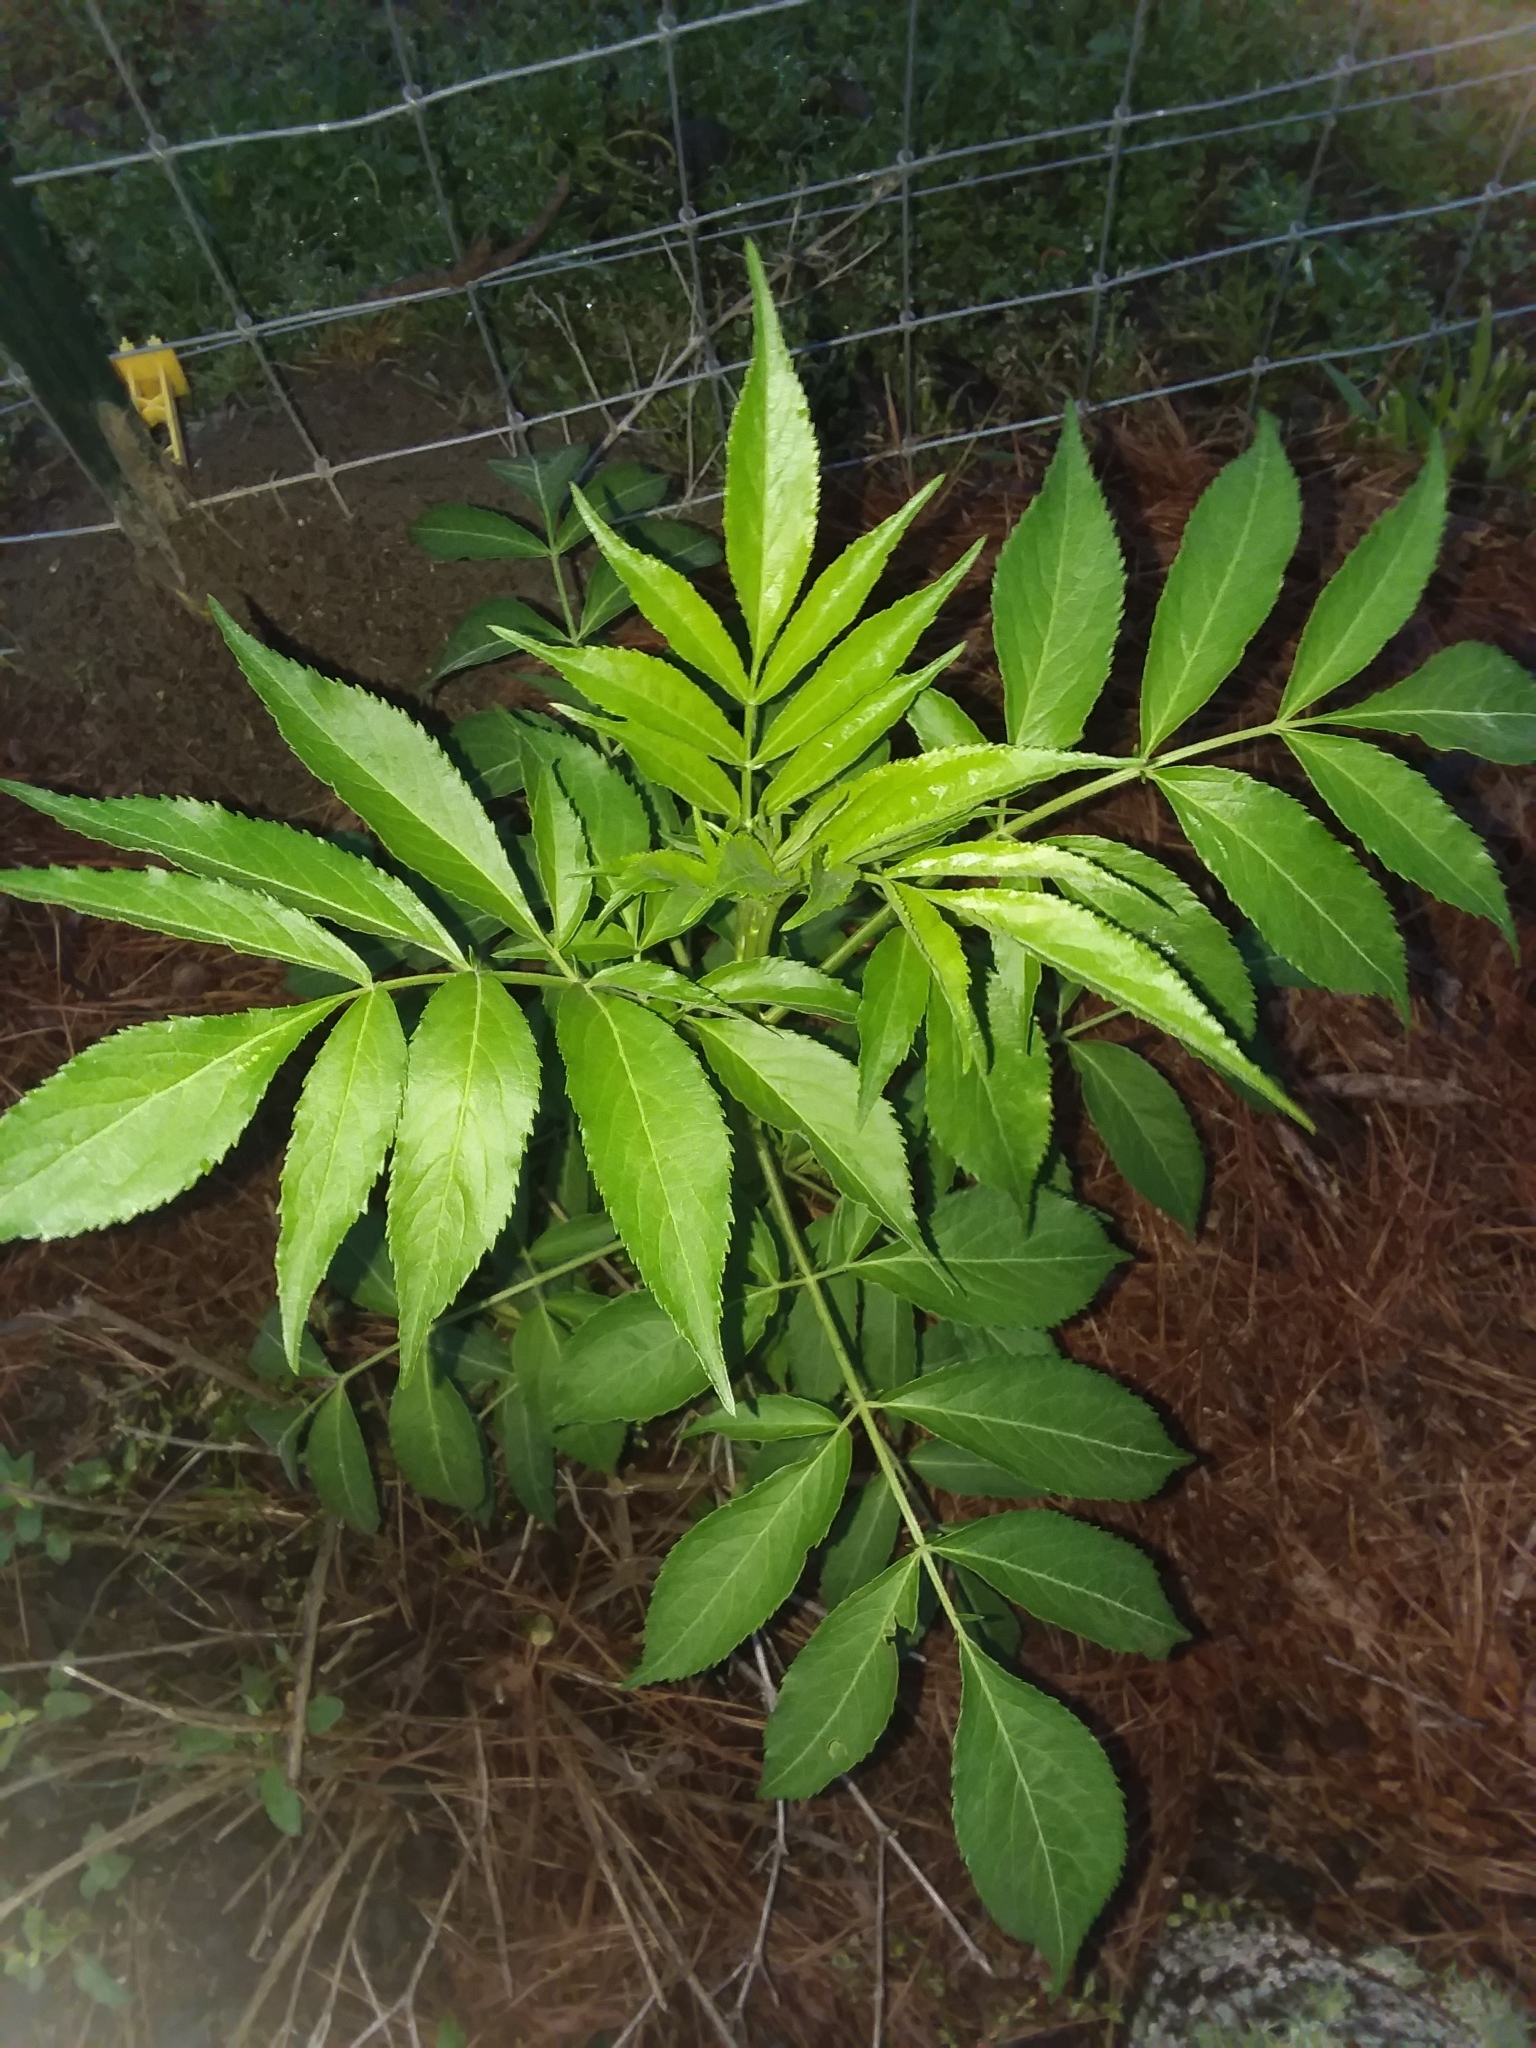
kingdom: Plantae
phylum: Tracheophyta
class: Magnoliopsida
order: Dipsacales
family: Viburnaceae
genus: Sambucus
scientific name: Sambucus canadensis
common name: American elder
